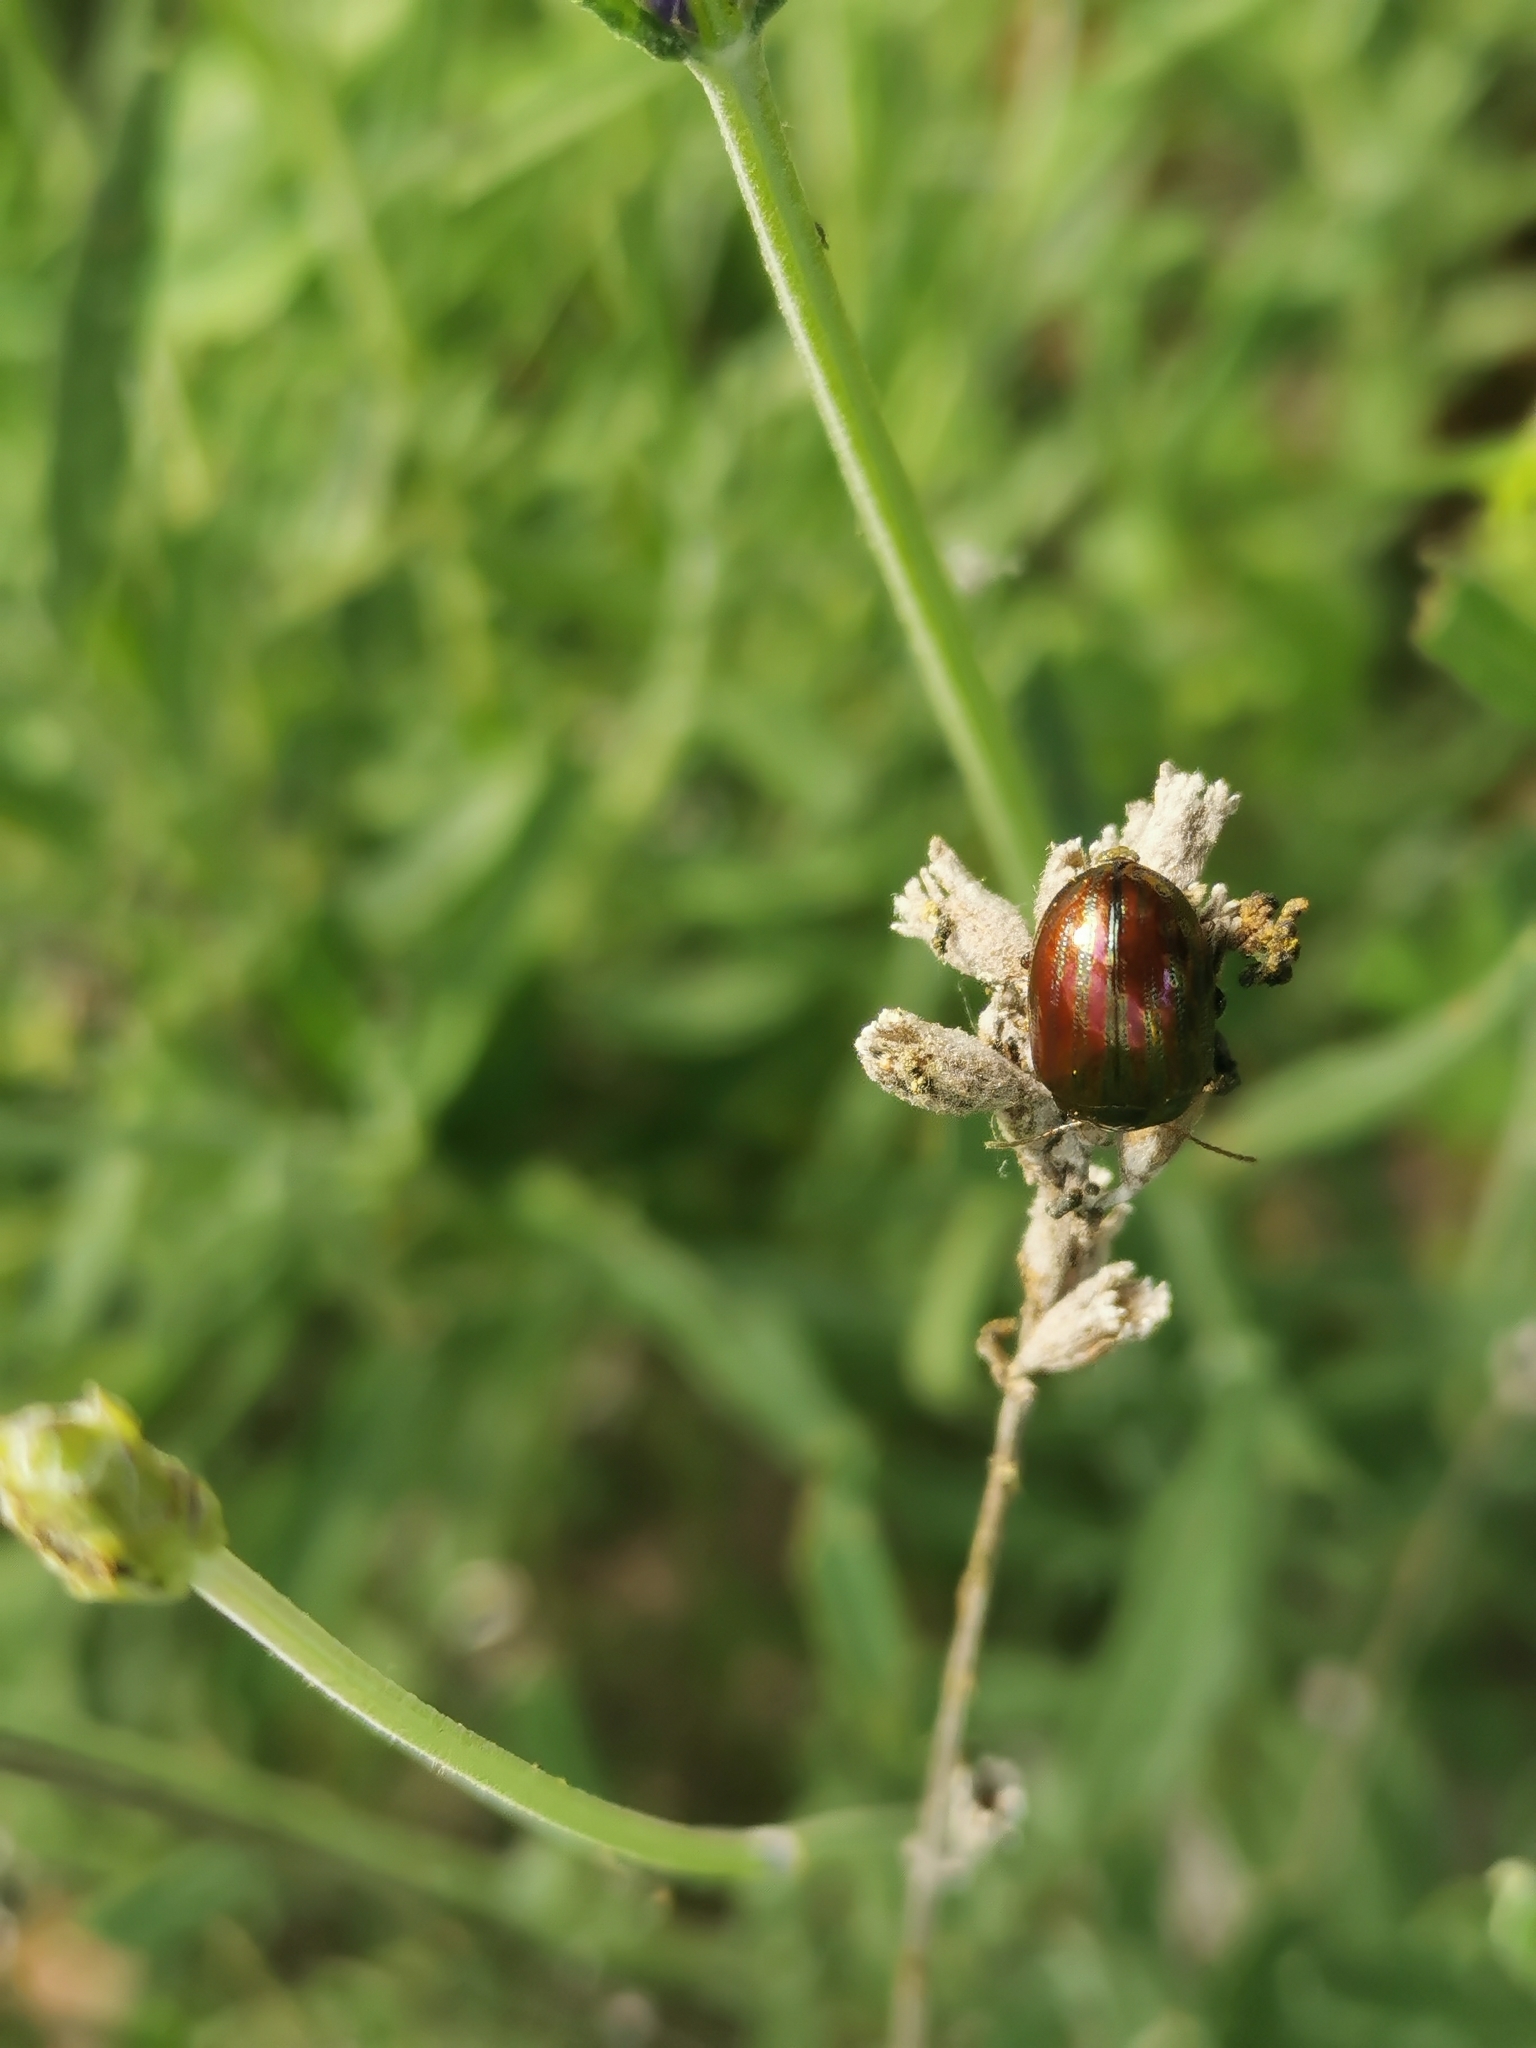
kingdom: Animalia
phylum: Arthropoda
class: Insecta
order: Coleoptera
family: Chrysomelidae
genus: Chrysolina
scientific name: Chrysolina americana
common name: Rosemary beetle
